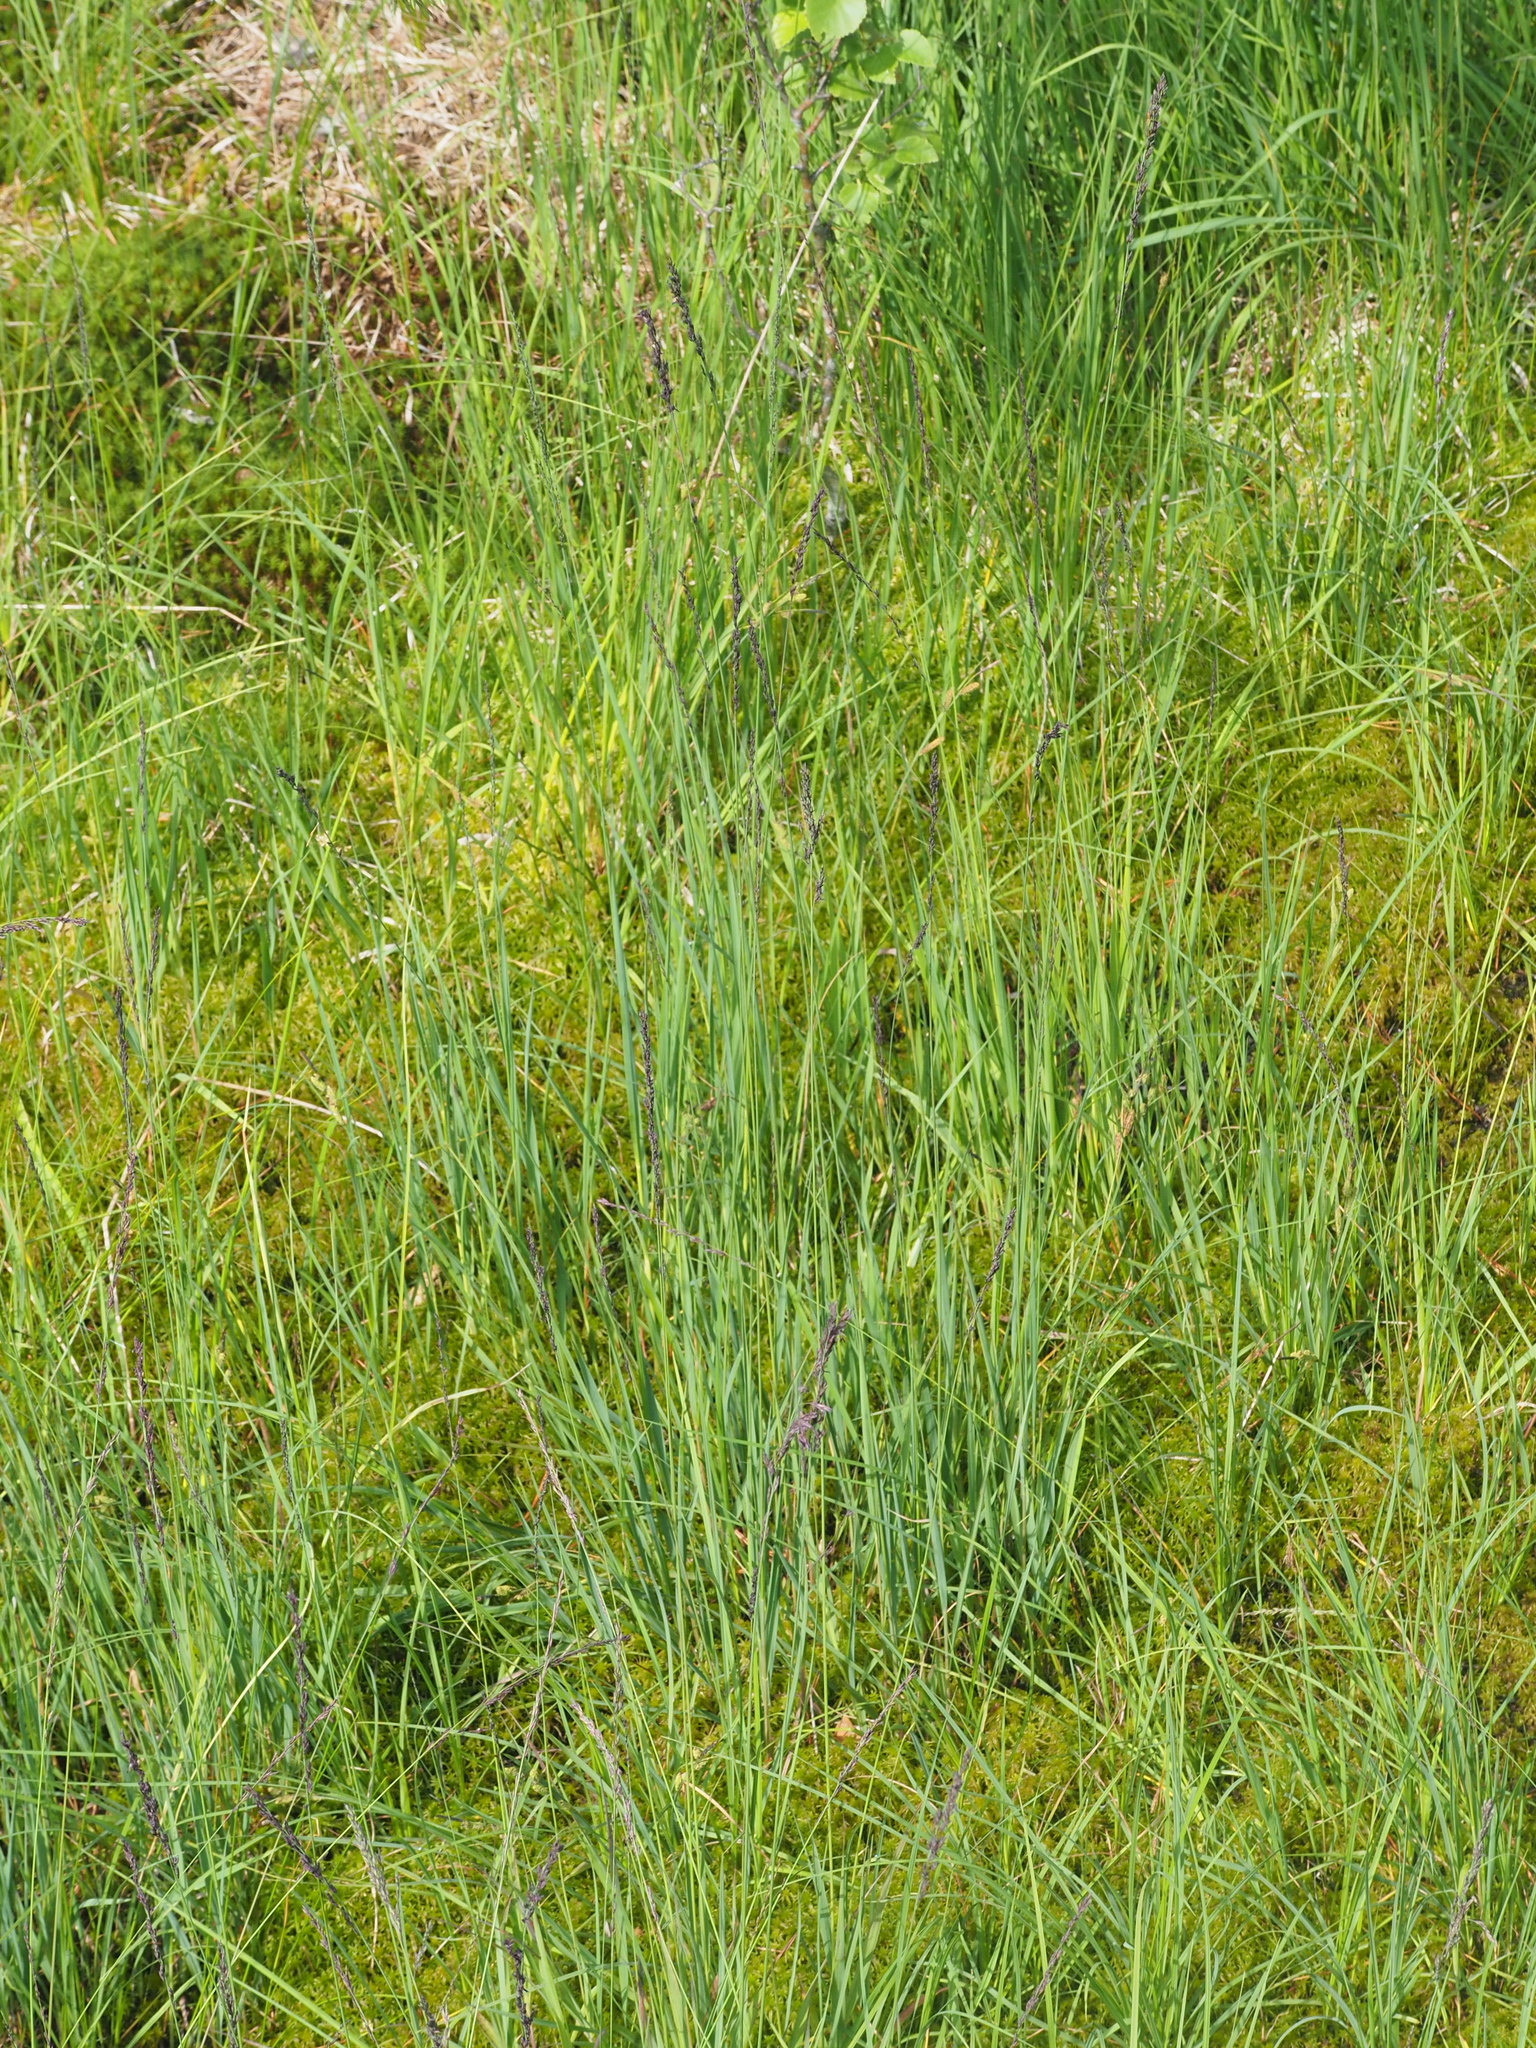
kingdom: Plantae
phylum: Tracheophyta
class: Liliopsida
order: Poales
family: Poaceae
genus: Molinia
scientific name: Molinia caerulea
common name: Purple moor-grass
